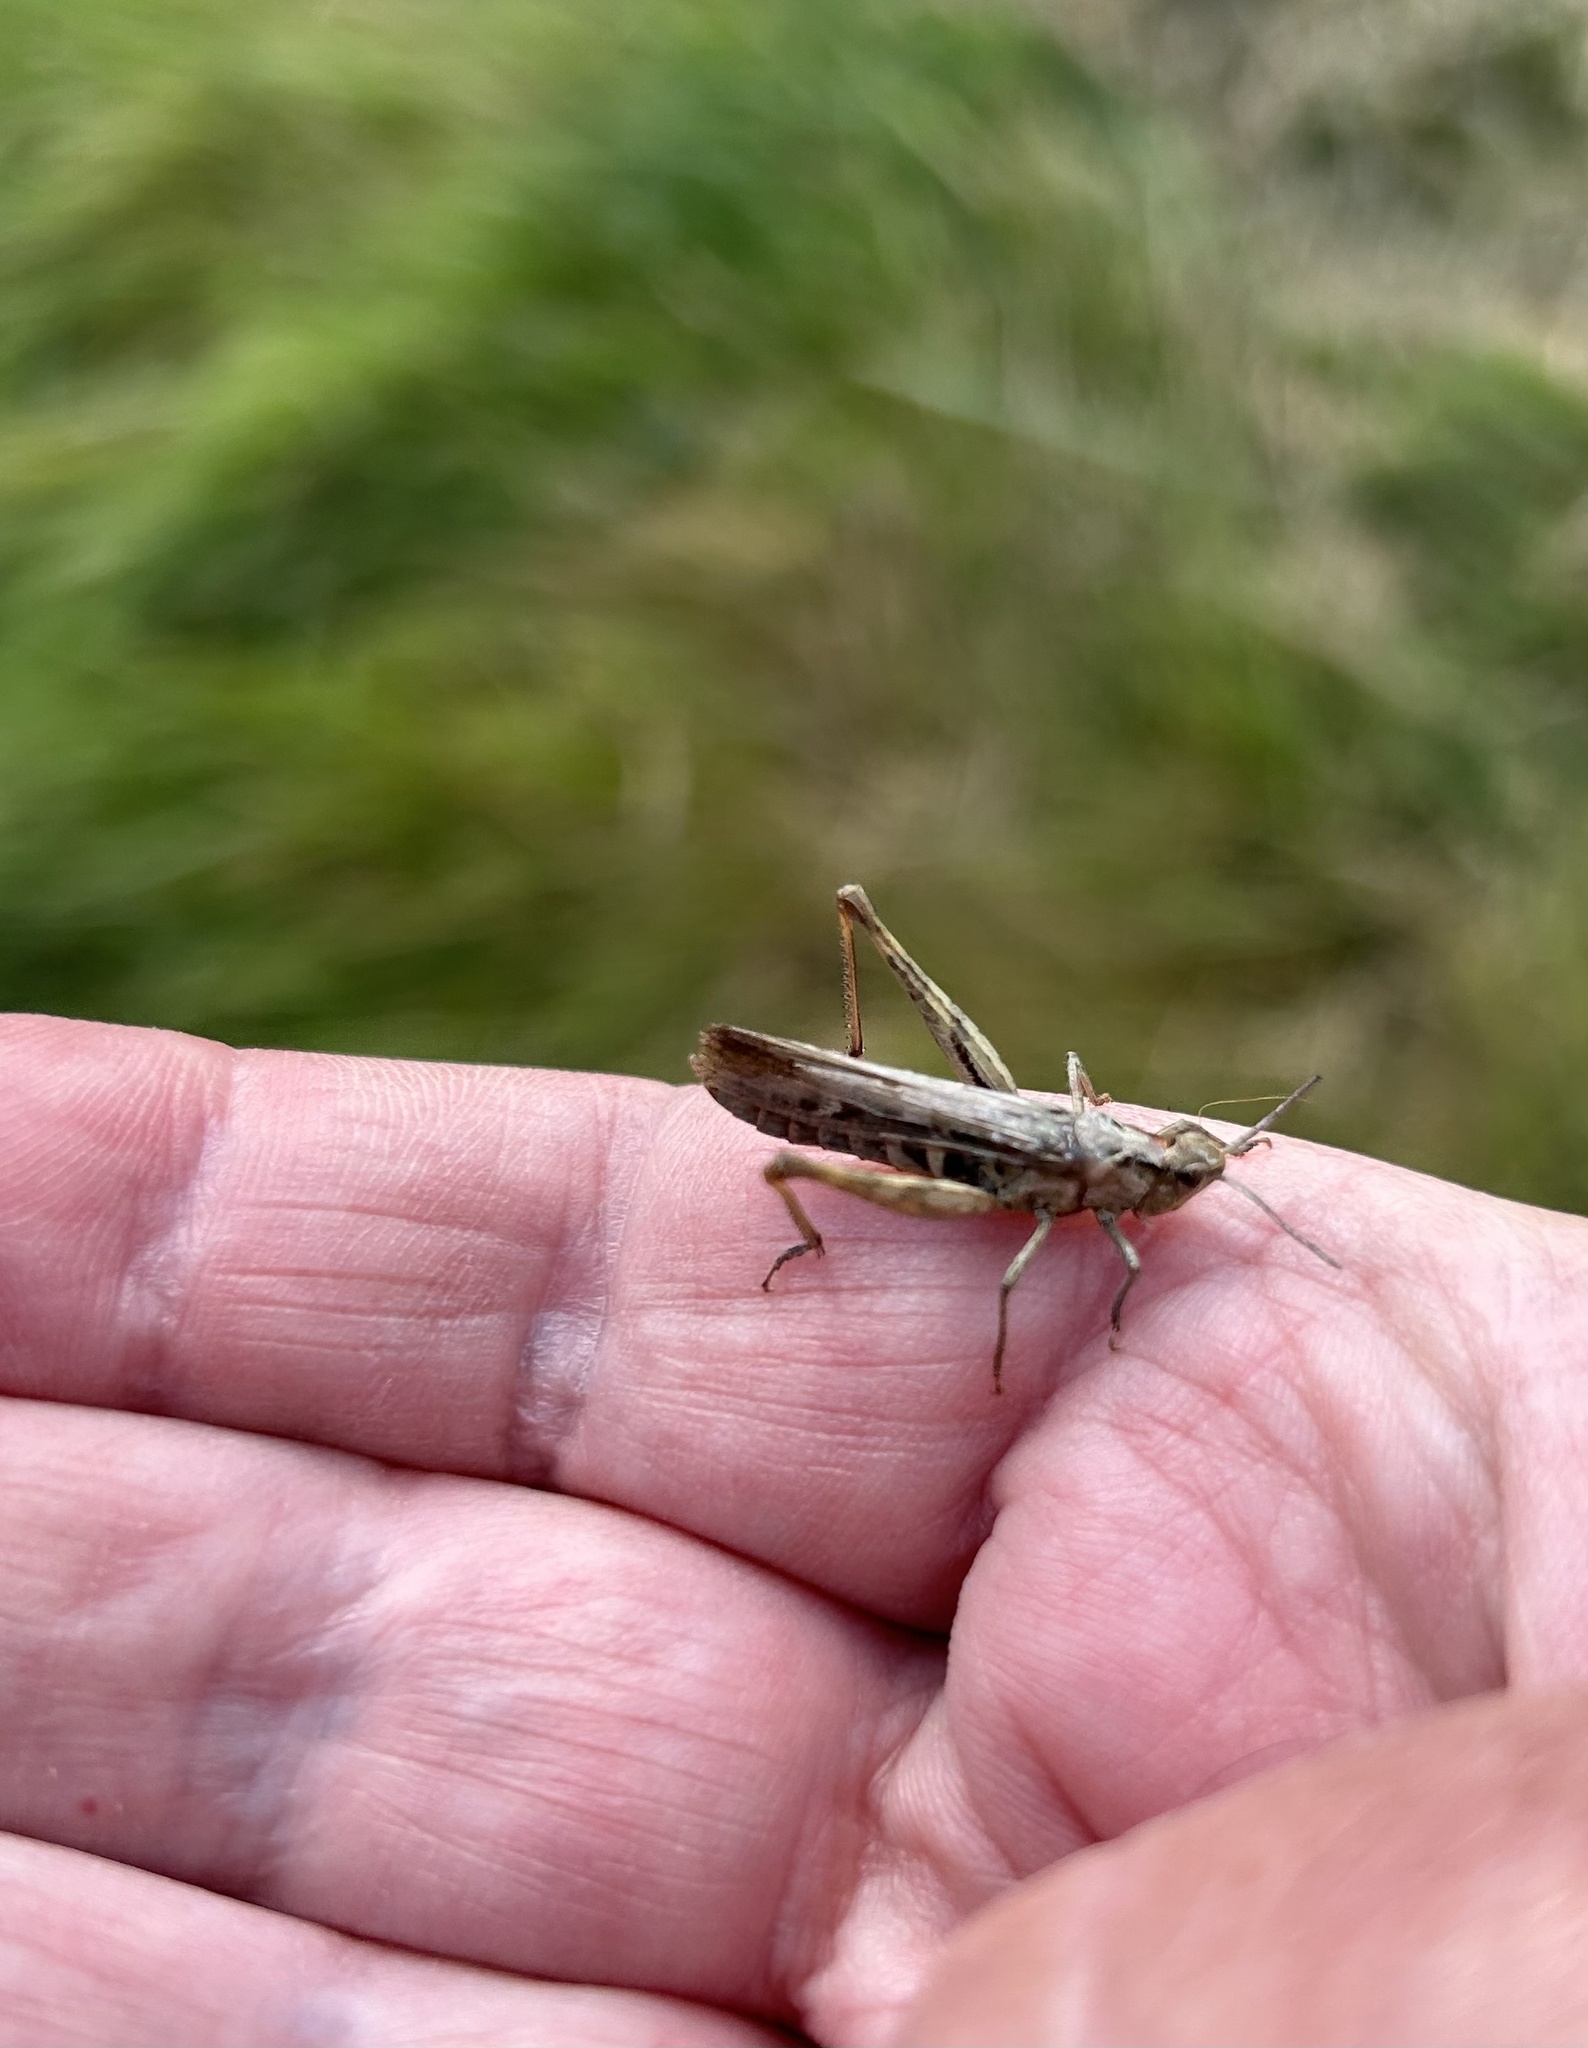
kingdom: Animalia
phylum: Arthropoda
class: Insecta
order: Orthoptera
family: Acrididae
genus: Chorthippus
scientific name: Chorthippus brunneus
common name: Field grasshopper
